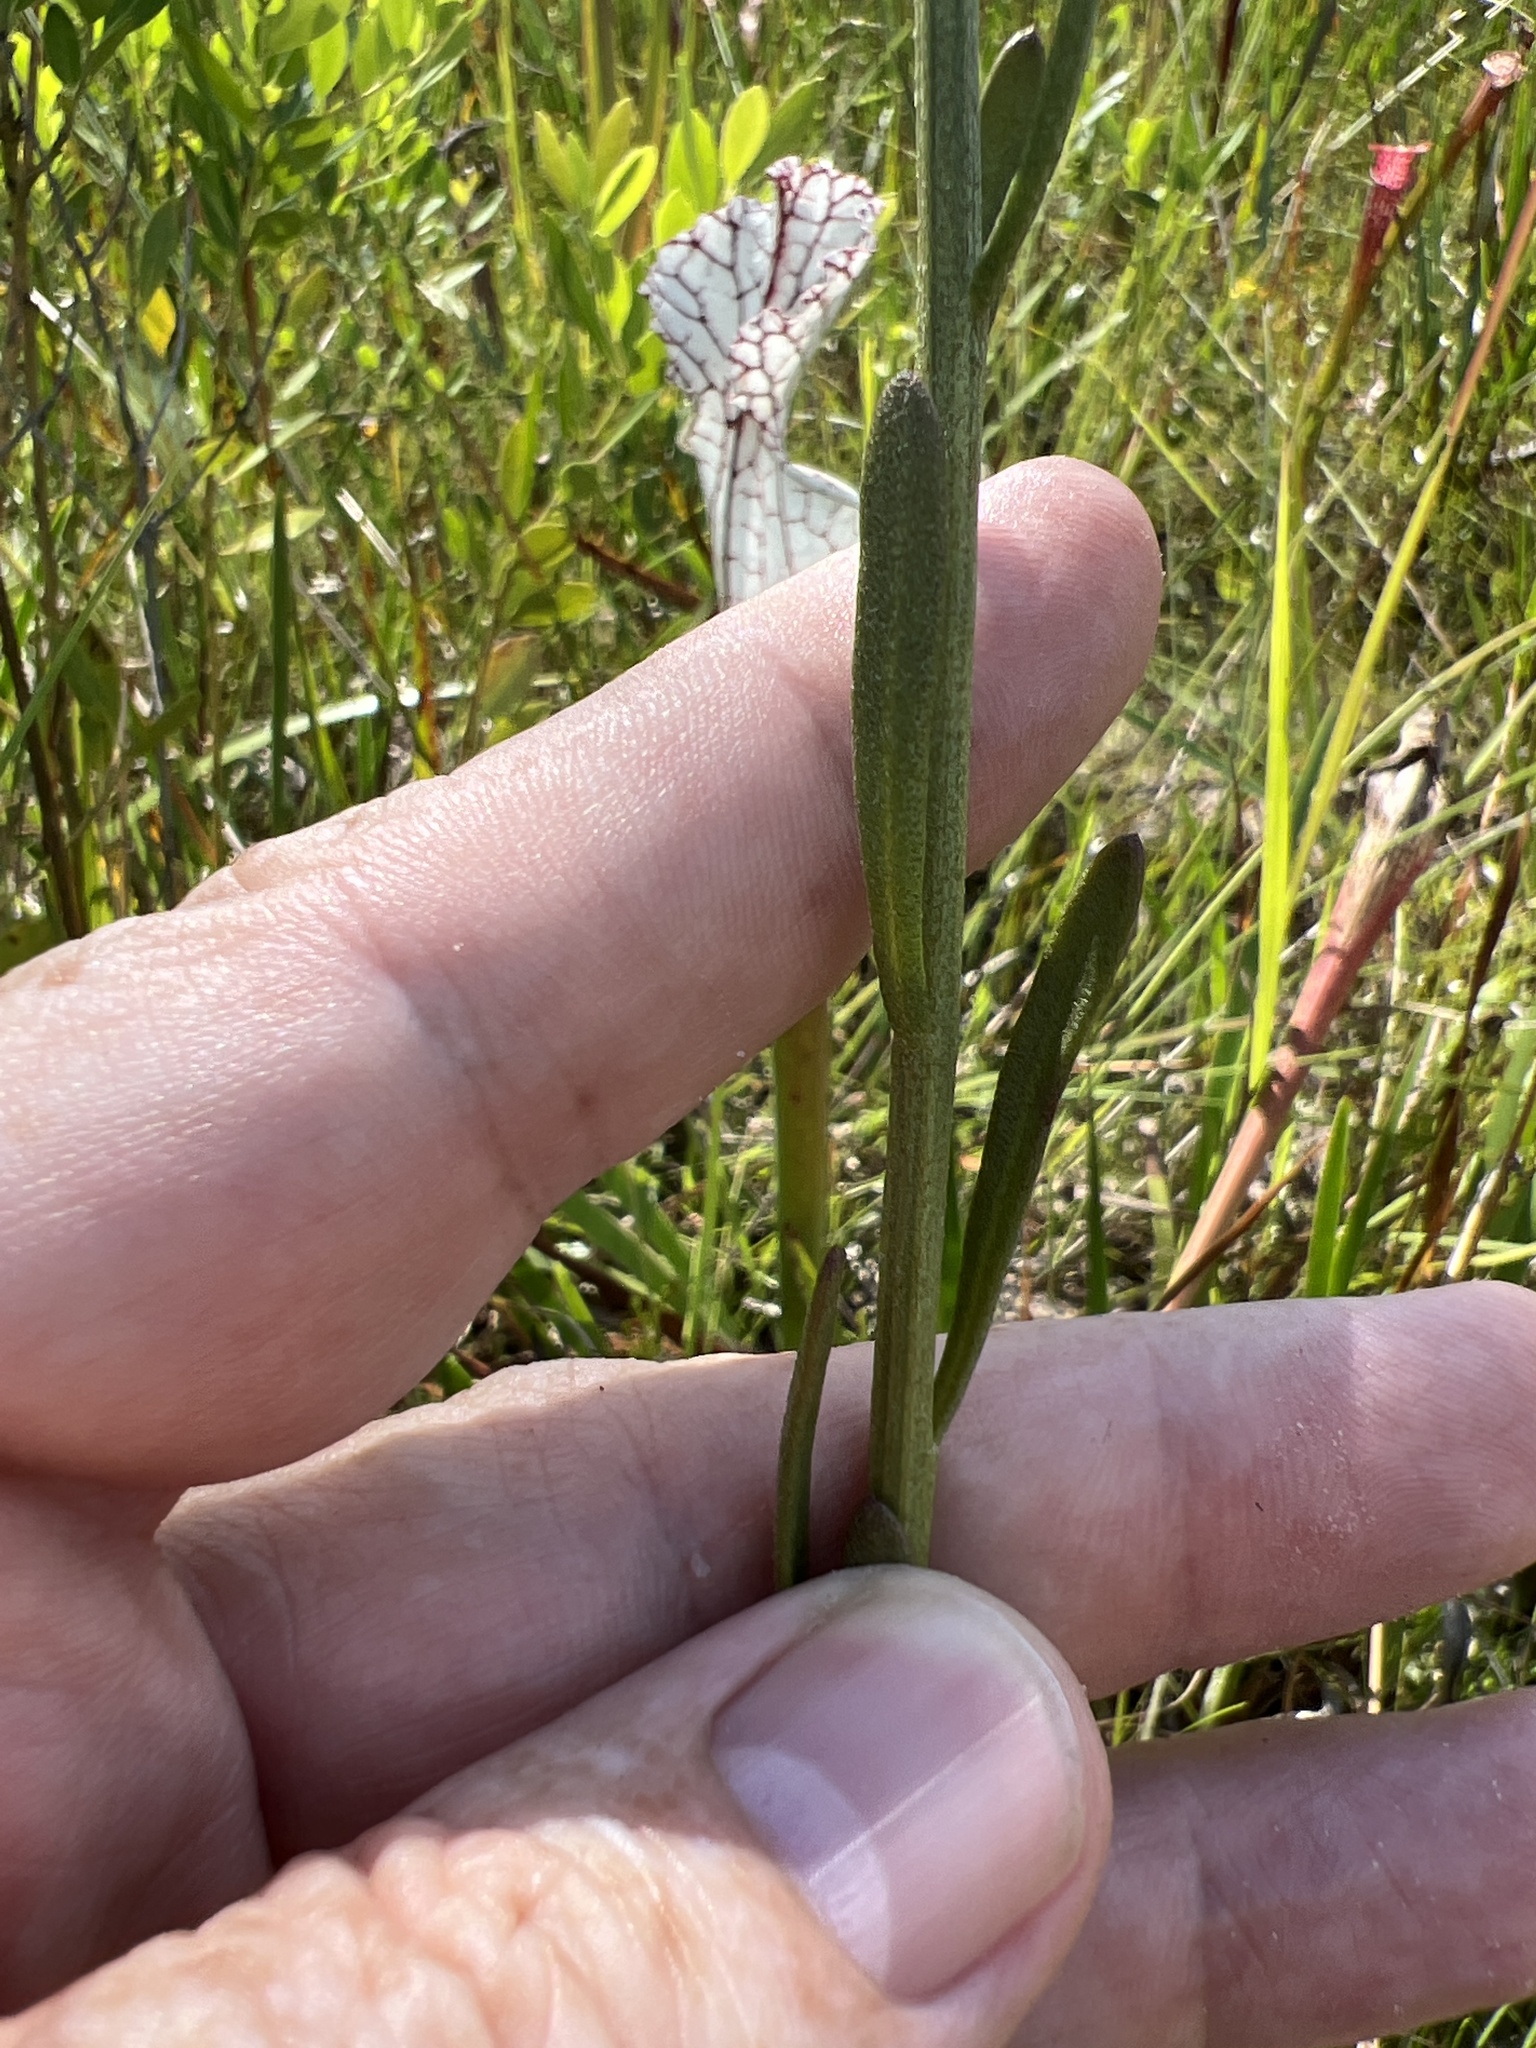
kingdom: Plantae
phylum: Tracheophyta
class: Magnoliopsida
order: Asterales
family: Asteraceae
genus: Balduina
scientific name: Balduina uniflora
